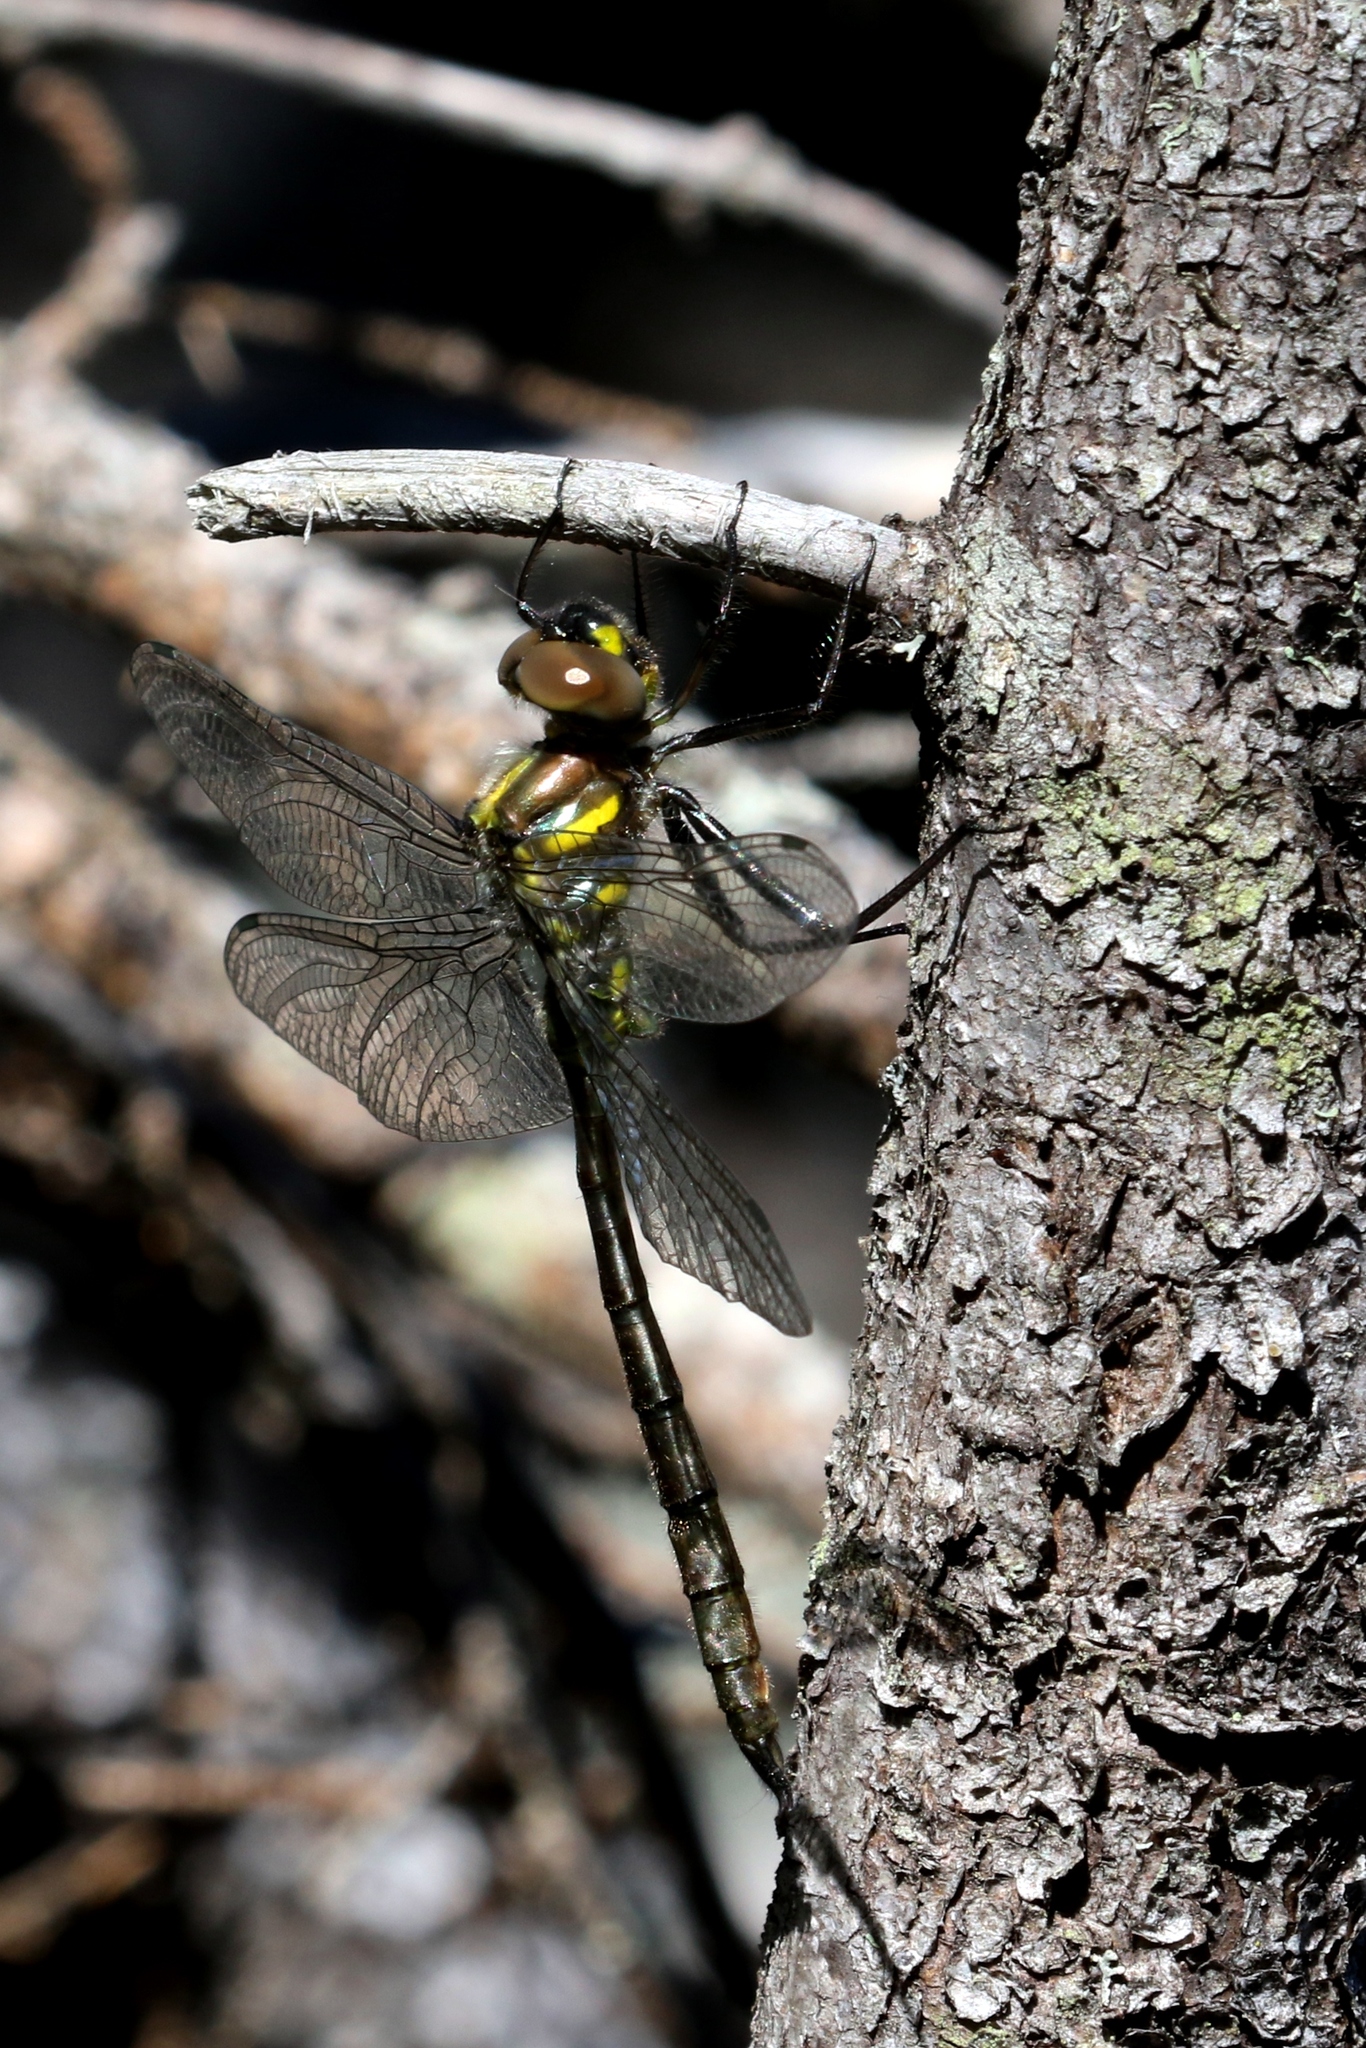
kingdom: Animalia
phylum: Arthropoda
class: Insecta
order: Odonata
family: Corduliidae
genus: Somatochlora
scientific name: Somatochlora elongata
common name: Ski-tipped emerald
